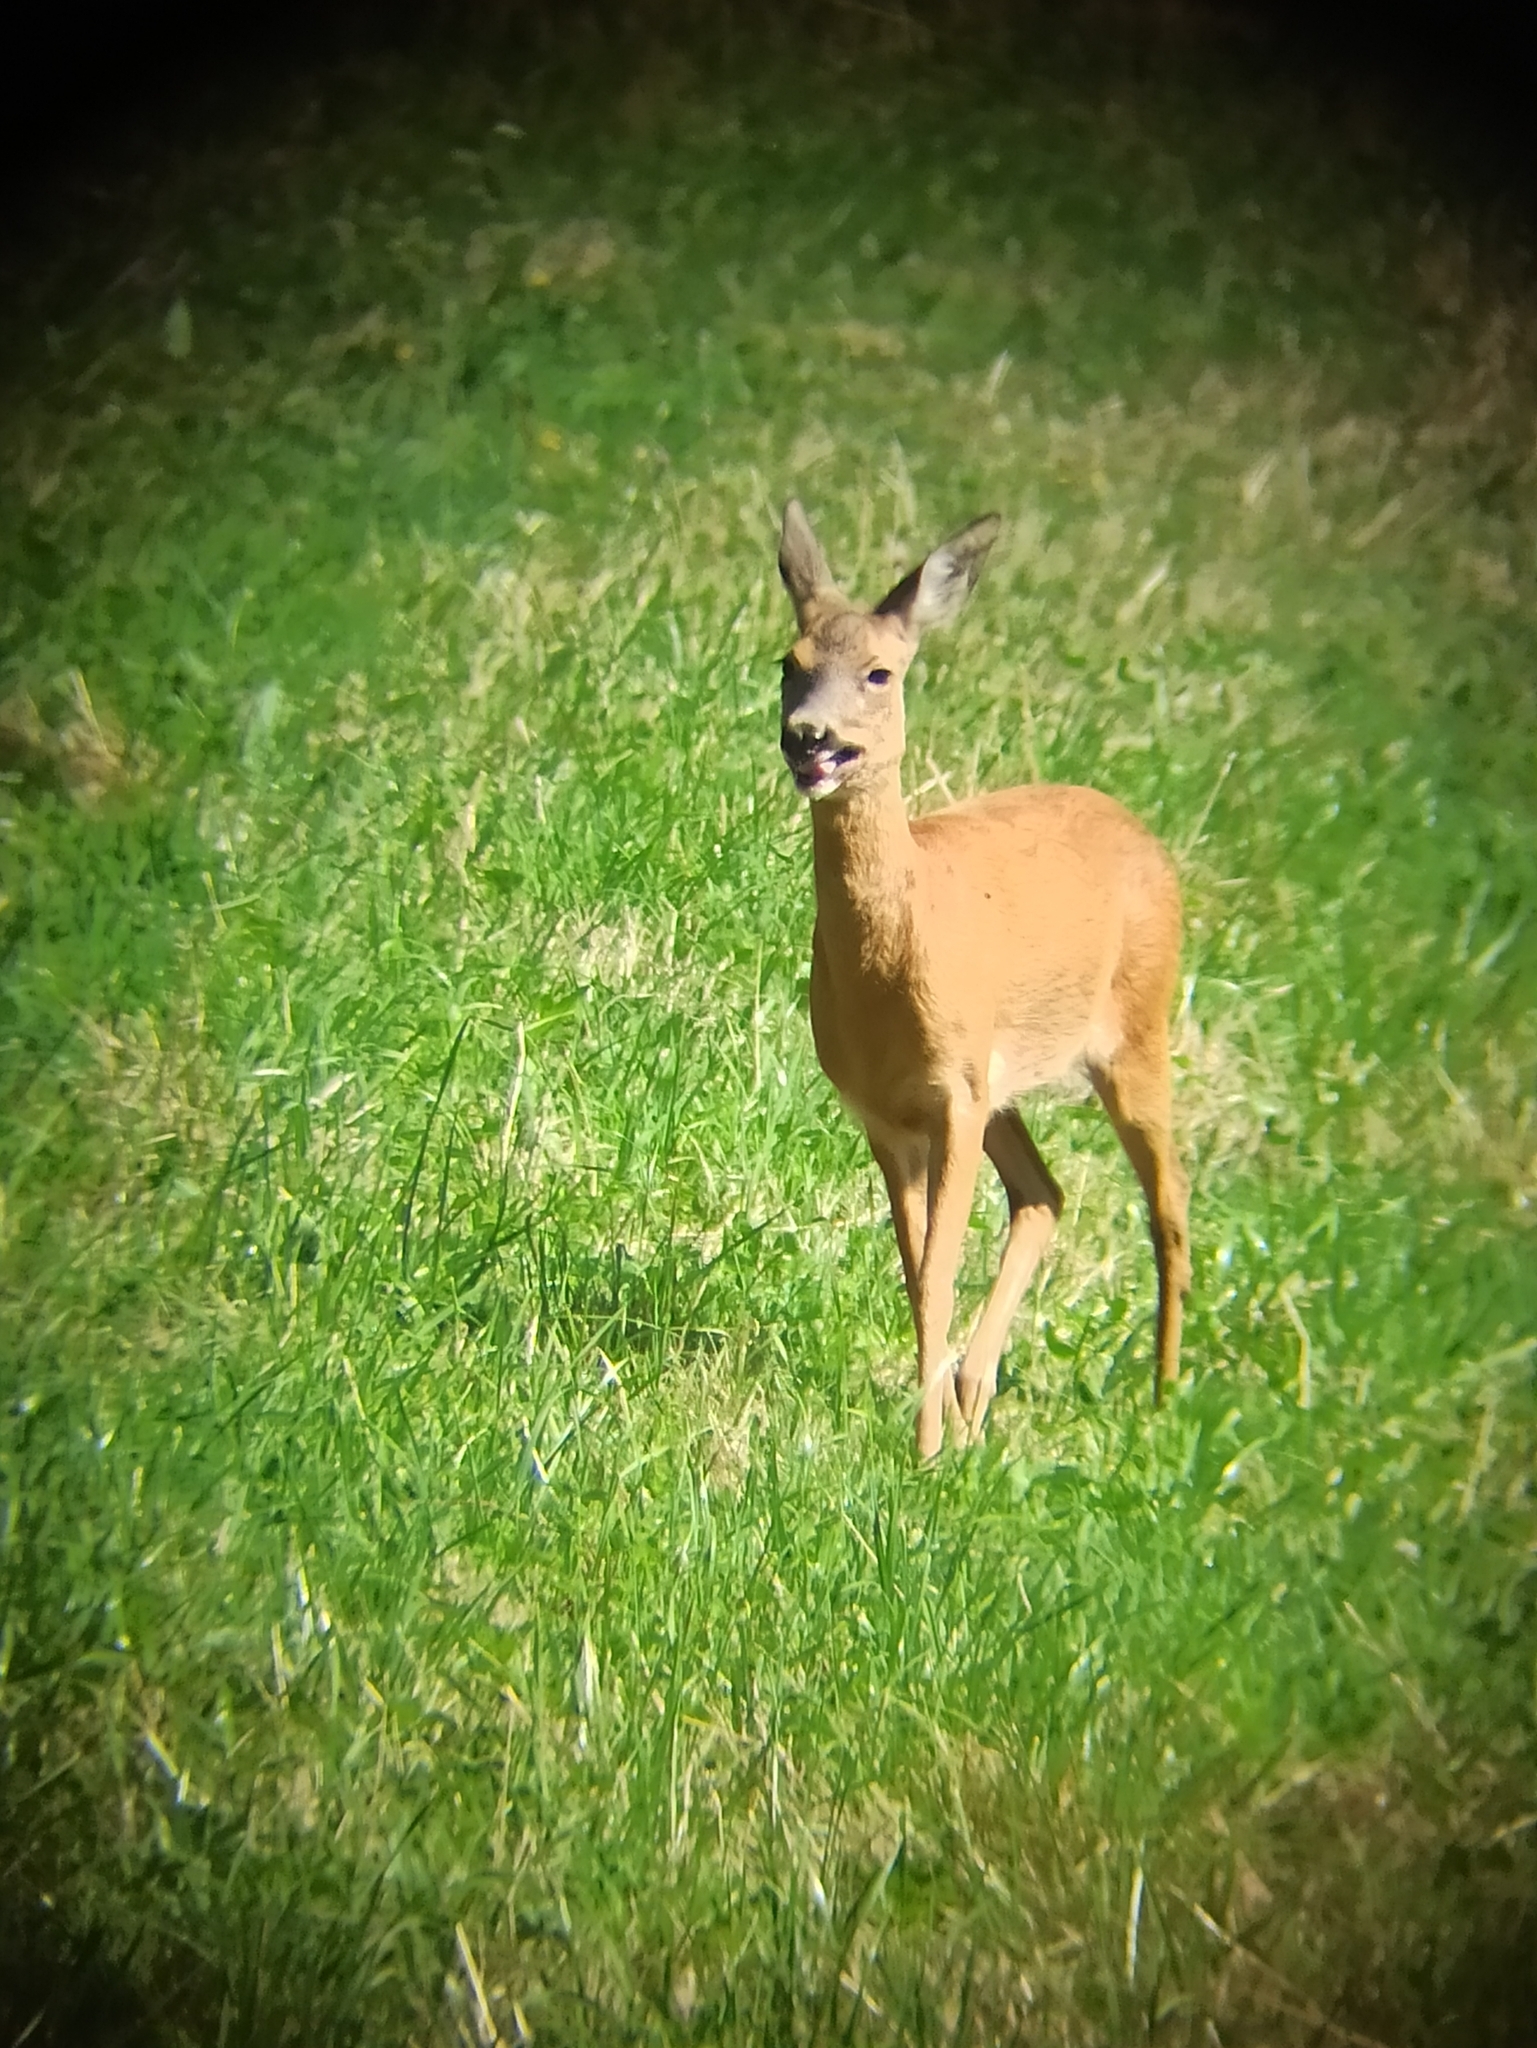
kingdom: Animalia
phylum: Chordata
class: Mammalia
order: Artiodactyla
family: Cervidae
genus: Capreolus
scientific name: Capreolus capreolus
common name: Western roe deer
